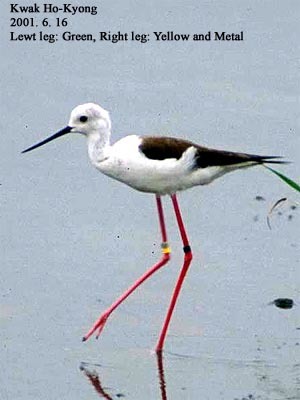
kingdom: Animalia
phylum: Chordata
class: Aves
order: Charadriiformes
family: Recurvirostridae
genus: Himantopus
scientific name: Himantopus himantopus
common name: Black-winged stilt
